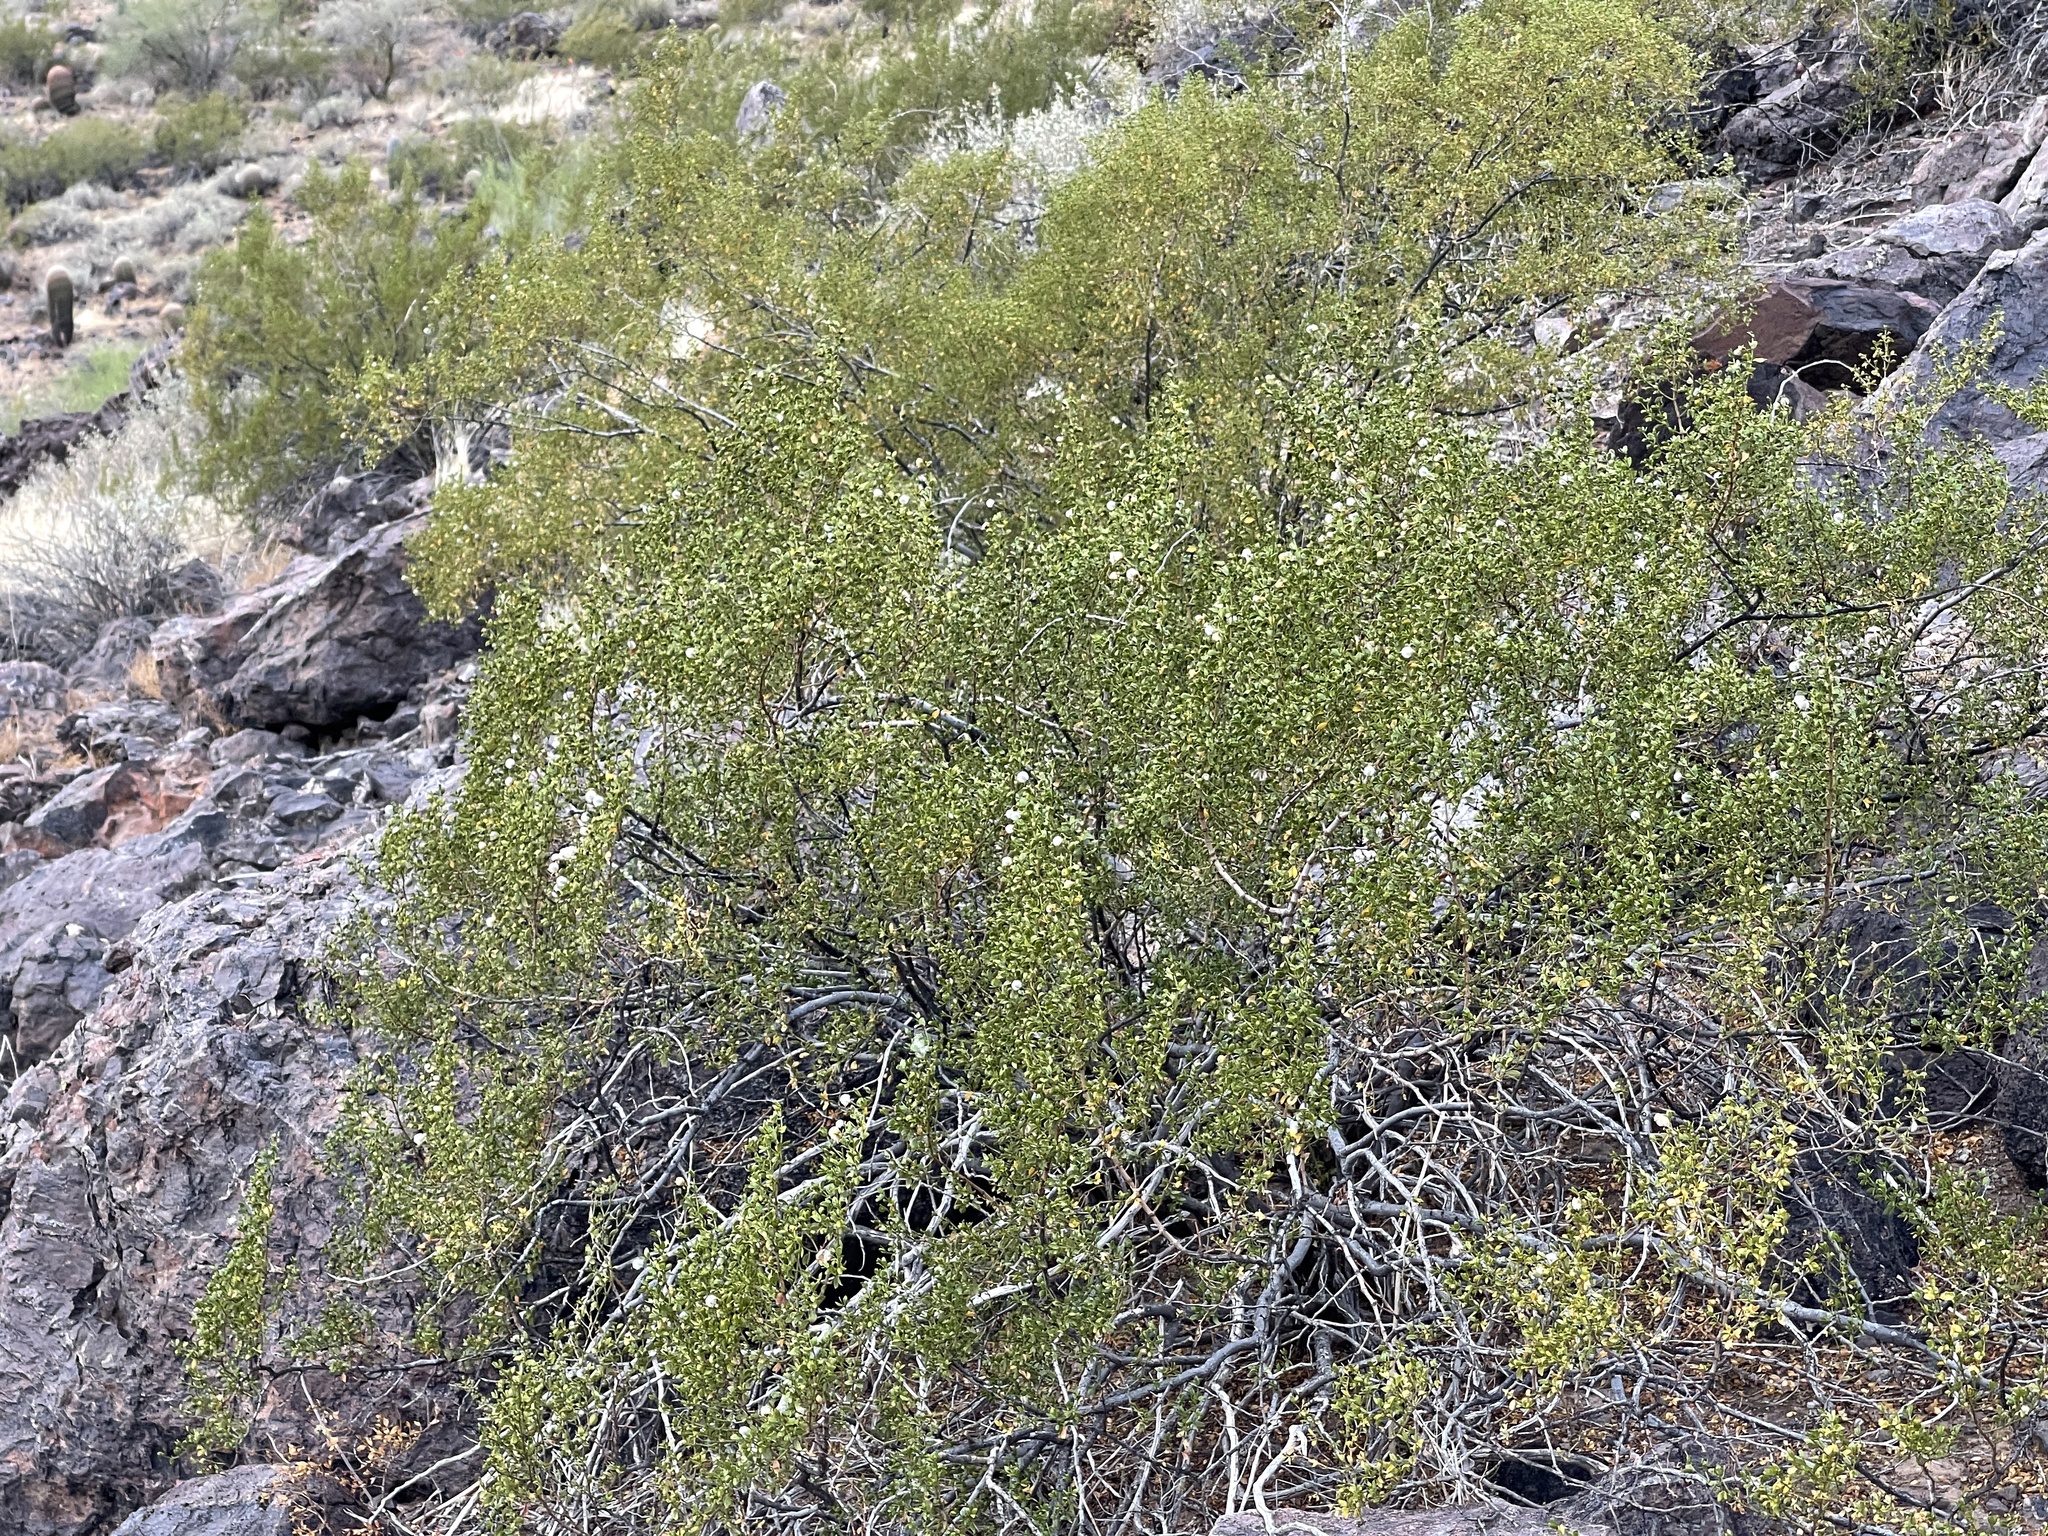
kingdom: Plantae
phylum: Tracheophyta
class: Magnoliopsida
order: Zygophyllales
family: Zygophyllaceae
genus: Larrea
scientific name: Larrea tridentata
